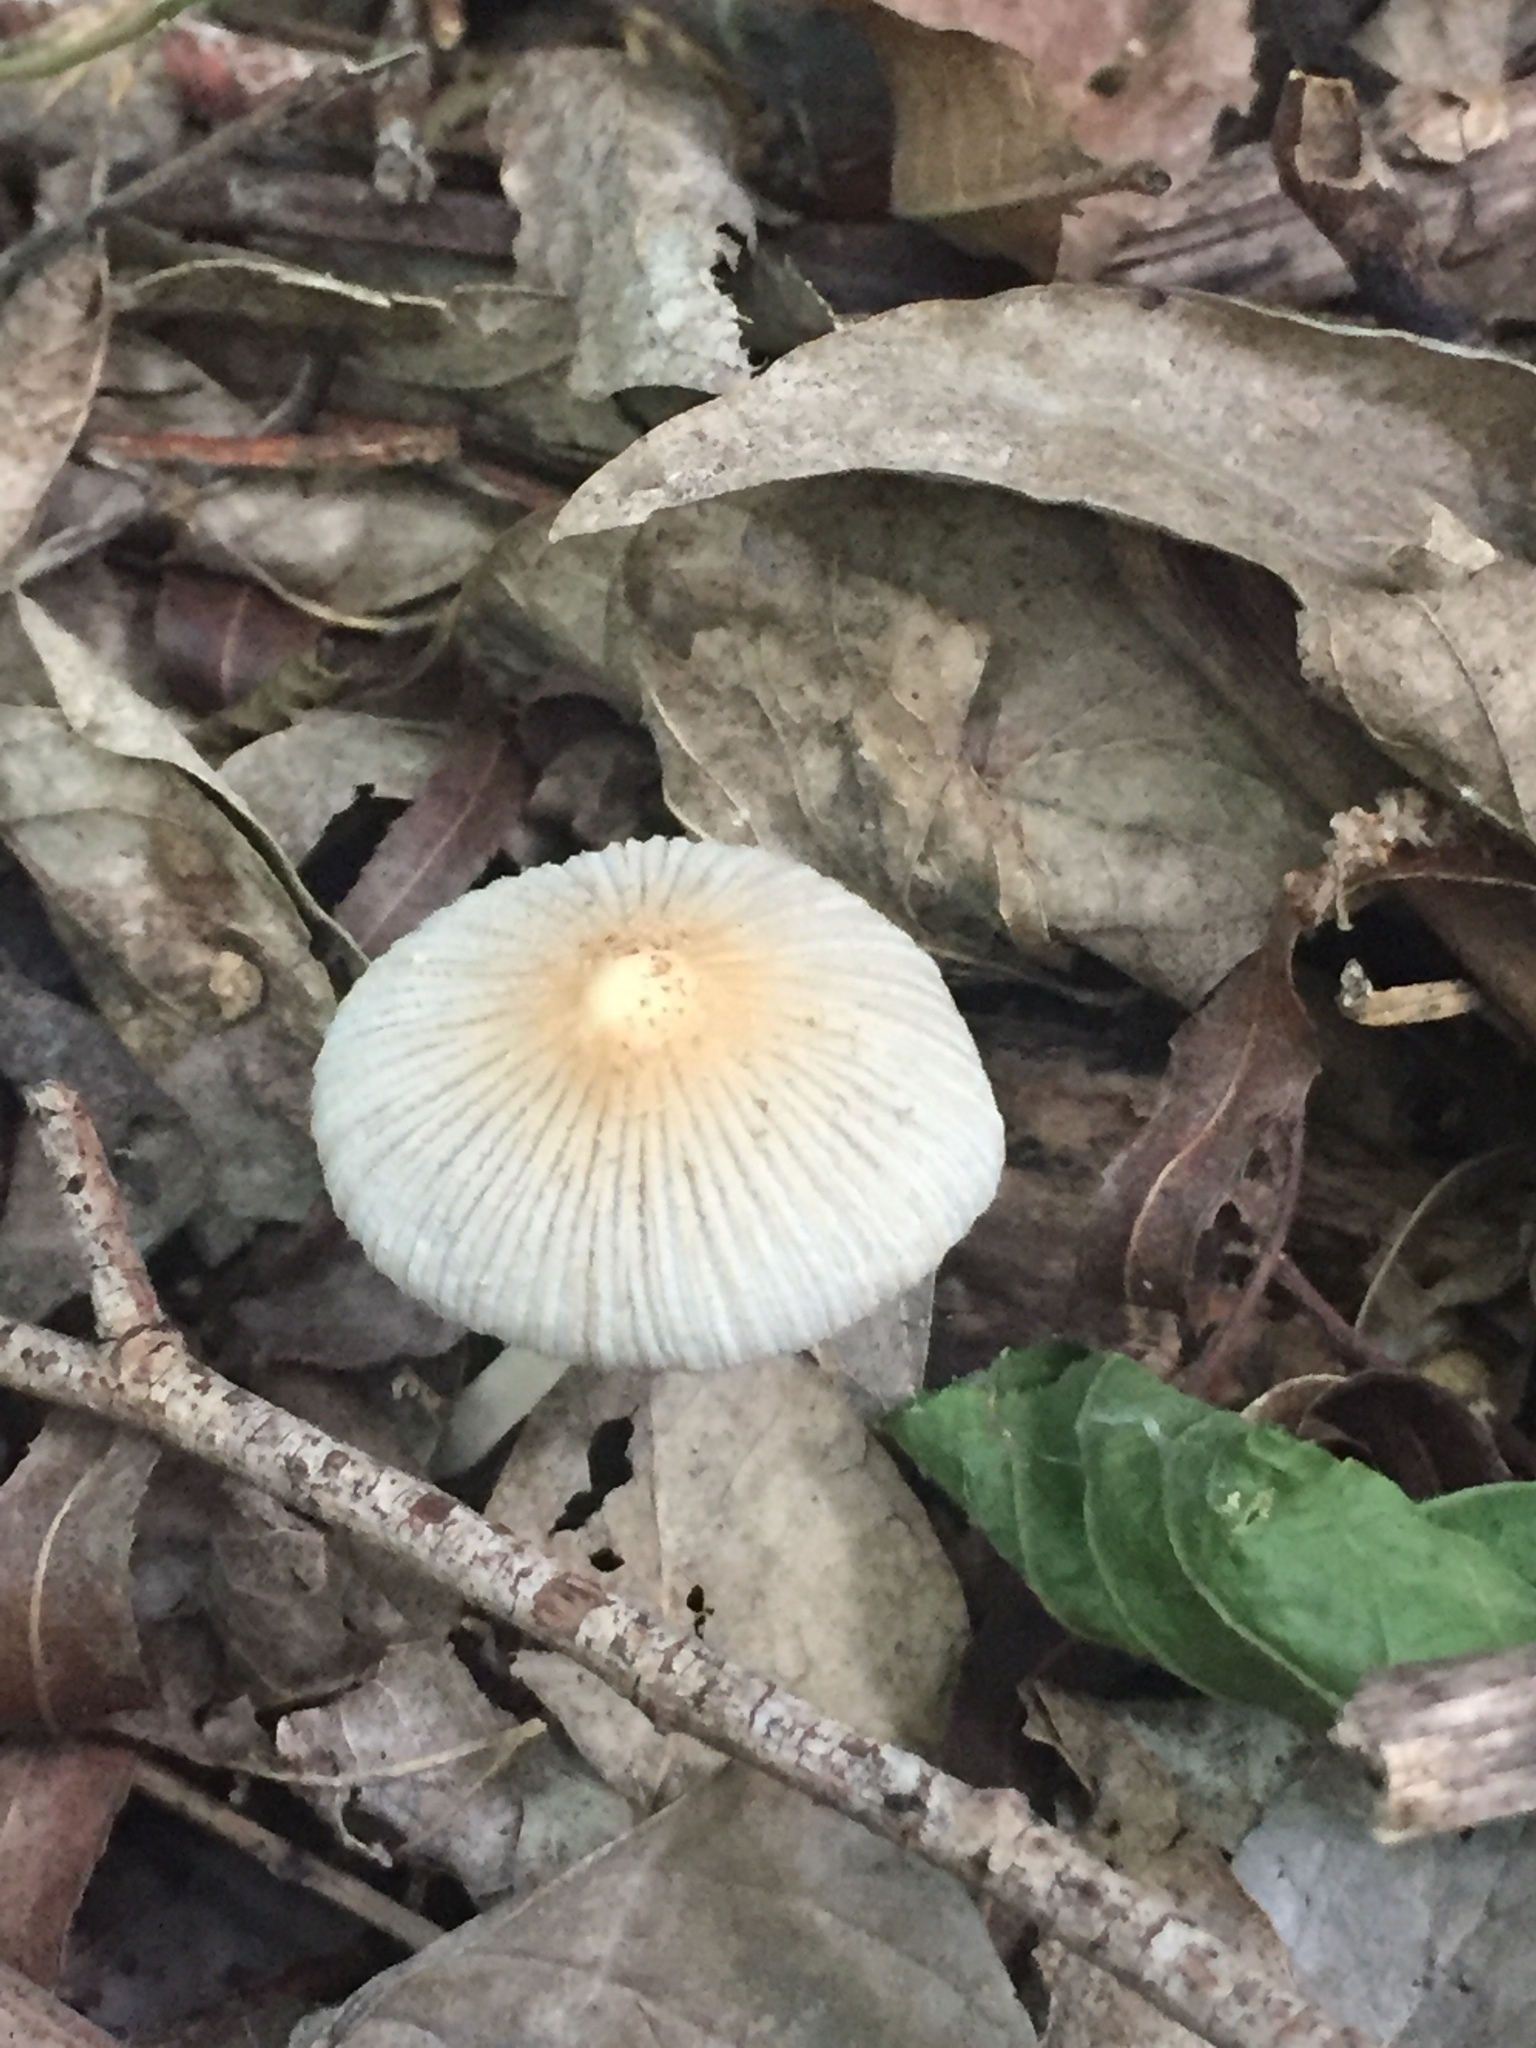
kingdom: Fungi
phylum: Basidiomycota
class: Agaricomycetes
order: Agaricales
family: Psathyrellaceae
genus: Parasola
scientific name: Parasola plicatilis
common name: Pleated inkcap
